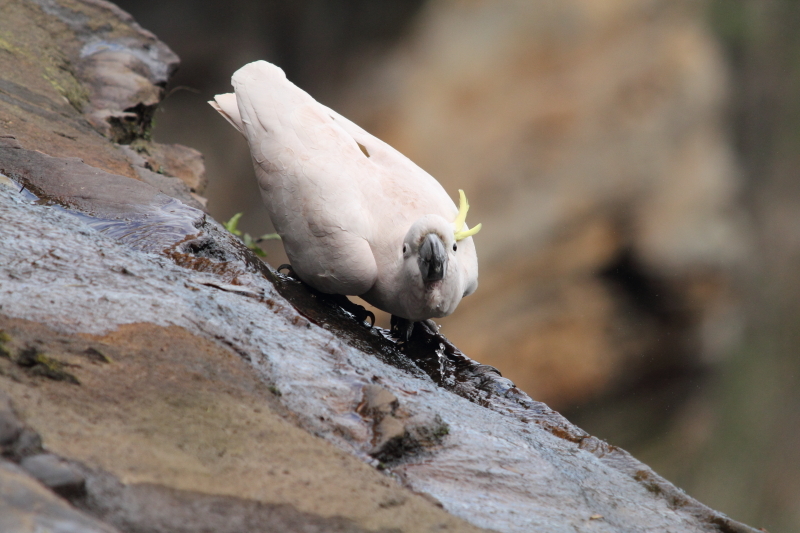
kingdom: Animalia
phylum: Chordata
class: Aves
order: Psittaciformes
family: Psittacidae
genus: Cacatua
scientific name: Cacatua galerita
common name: Sulphur-crested cockatoo
